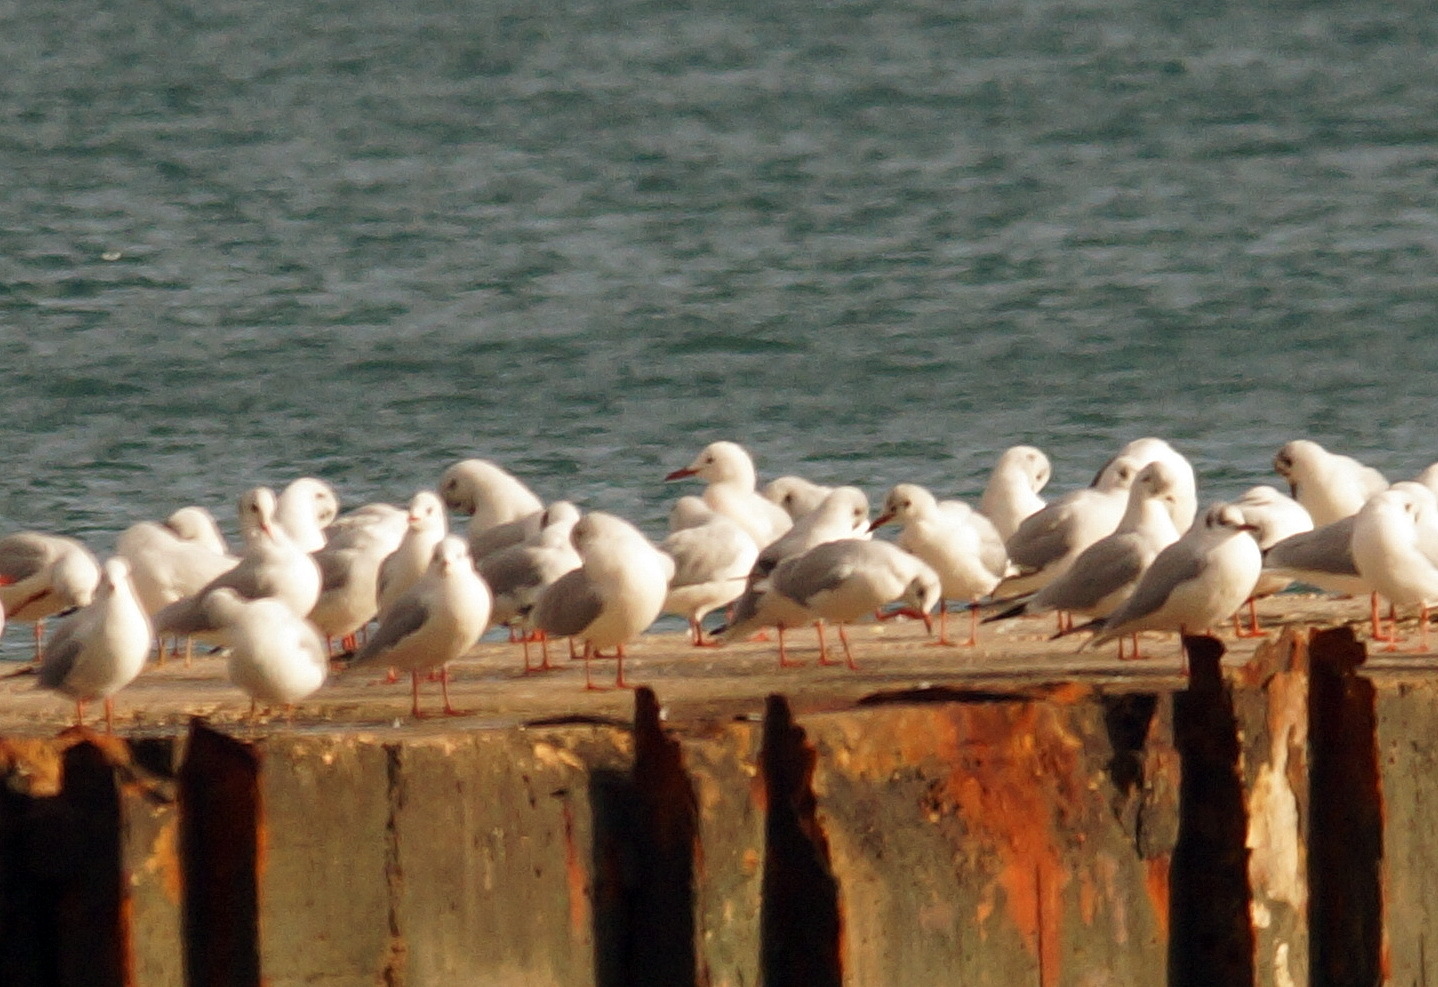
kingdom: Animalia
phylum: Chordata
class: Aves
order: Charadriiformes
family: Laridae
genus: Chroicocephalus
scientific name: Chroicocephalus genei
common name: Slender-billed gull
